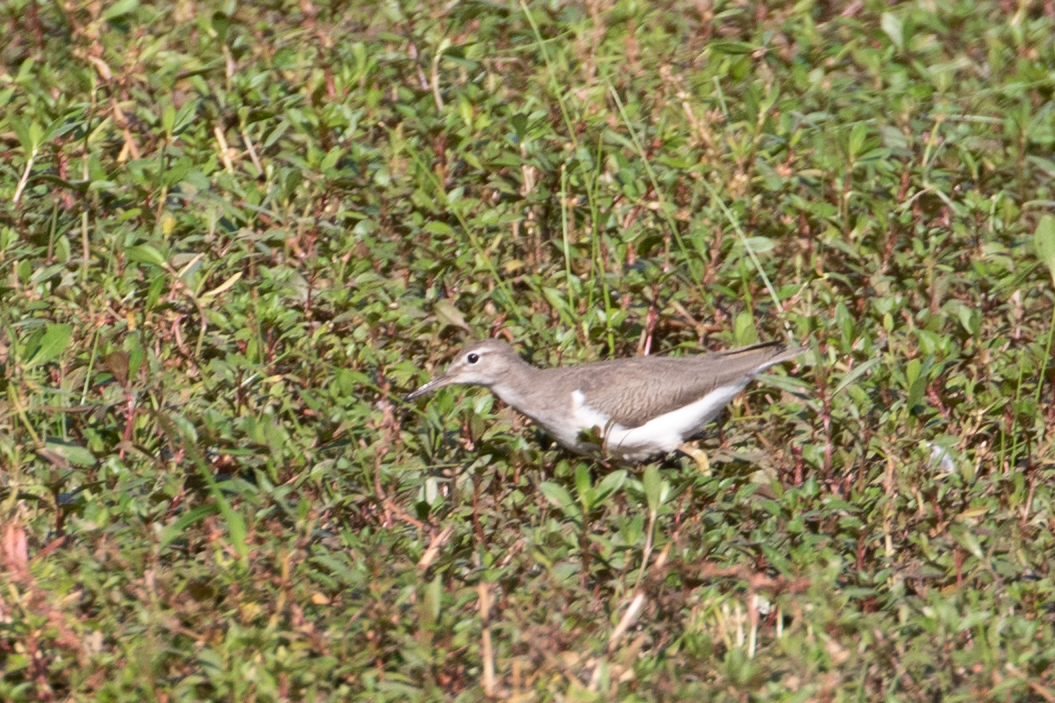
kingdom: Animalia
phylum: Chordata
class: Aves
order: Charadriiformes
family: Scolopacidae
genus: Actitis
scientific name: Actitis macularius
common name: Spotted sandpiper
